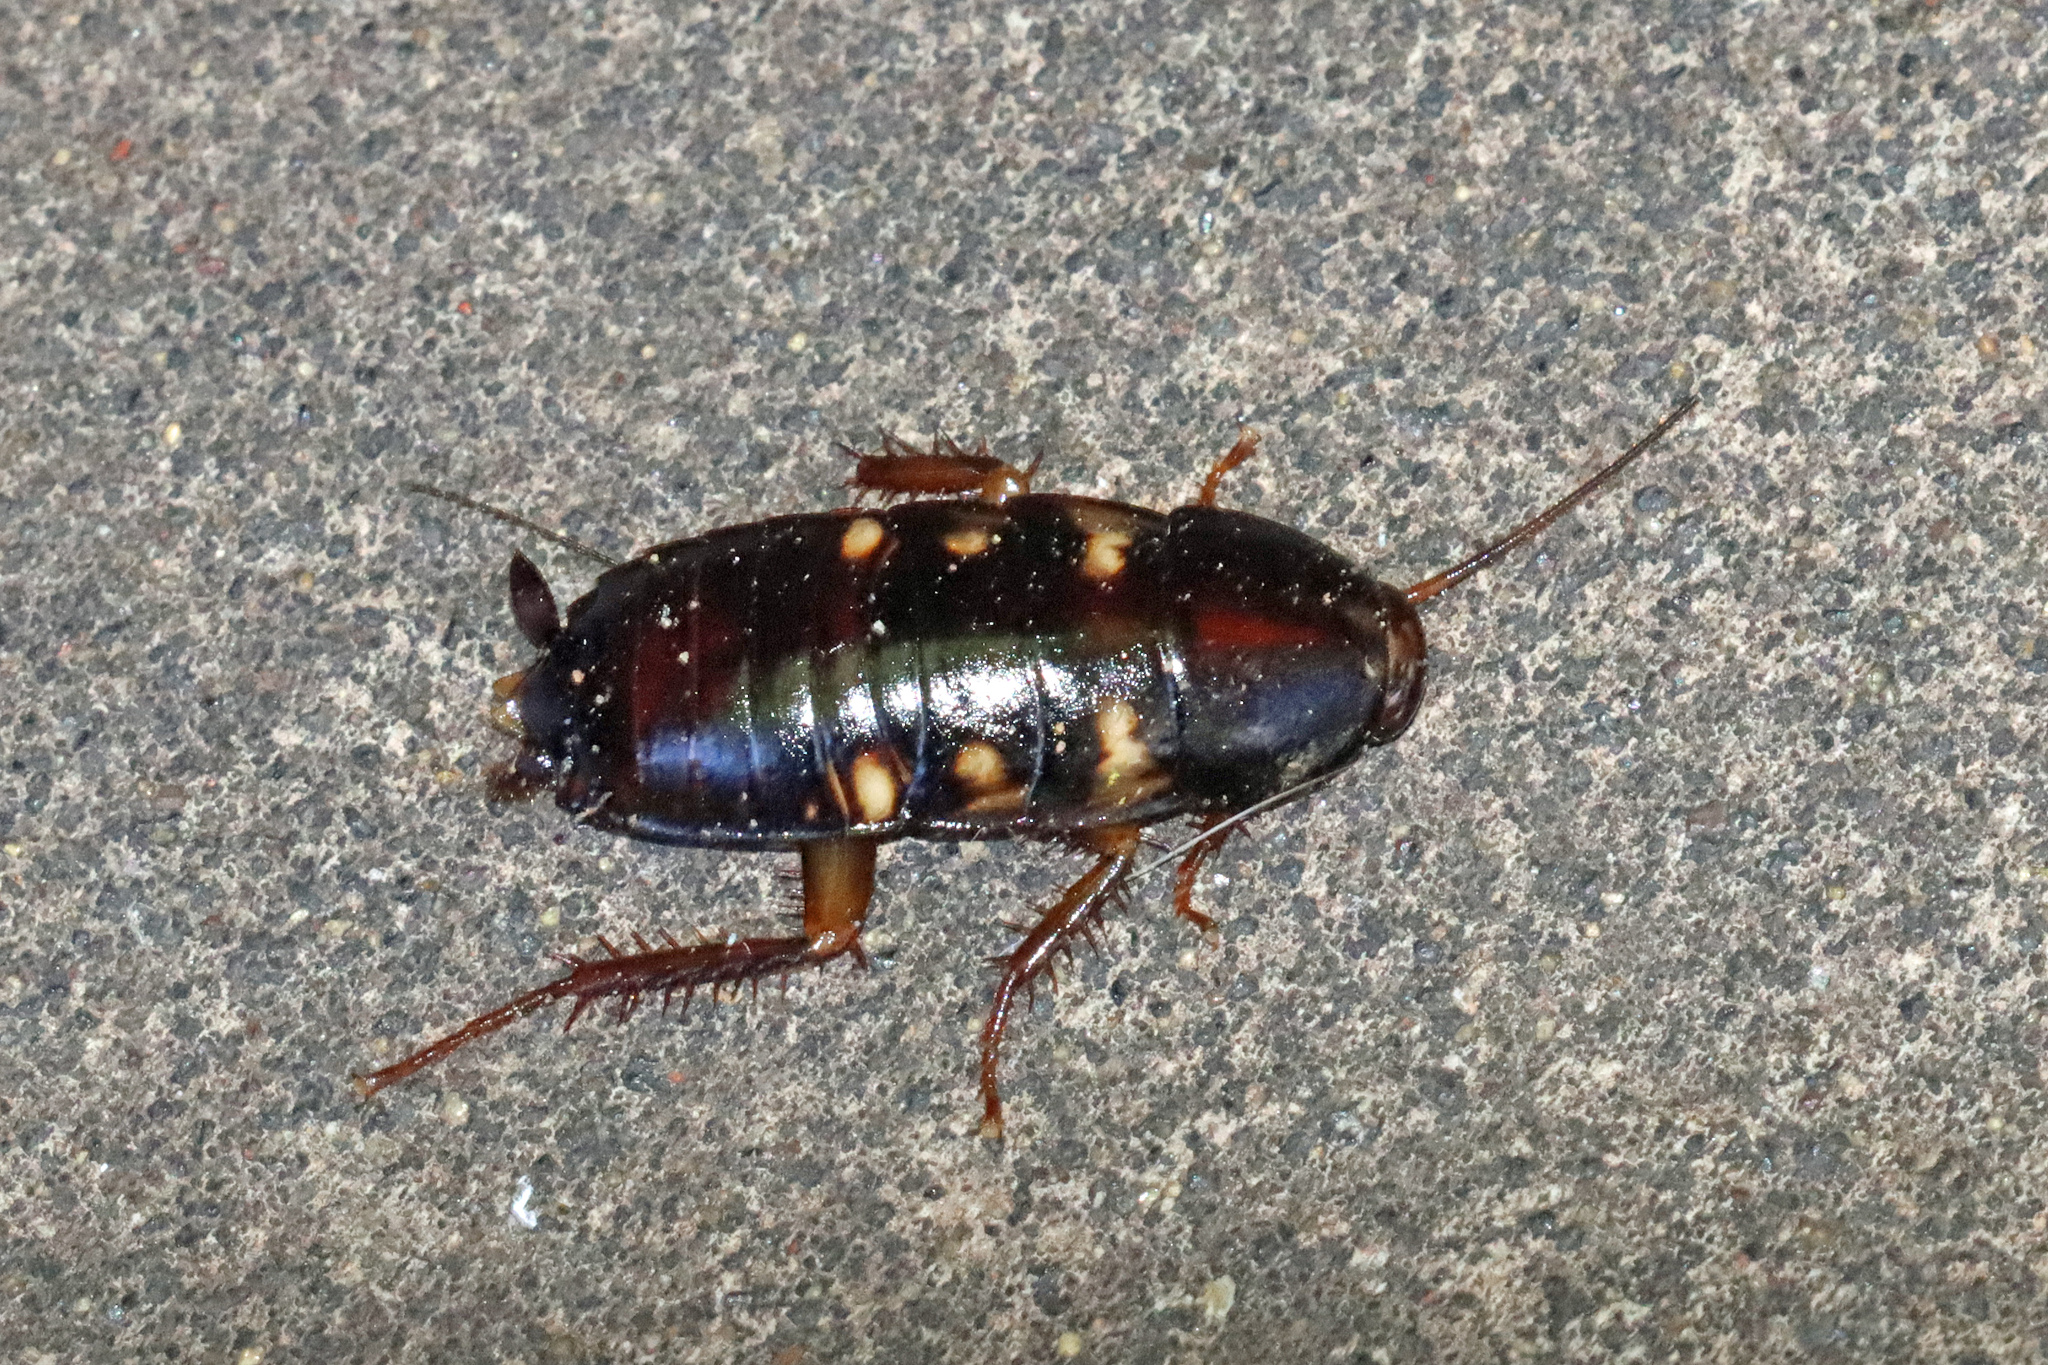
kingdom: Animalia
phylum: Arthropoda
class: Insecta
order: Blattodea
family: Blattidae
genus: Periplaneta
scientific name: Periplaneta australasiae
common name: Australian cockroach
